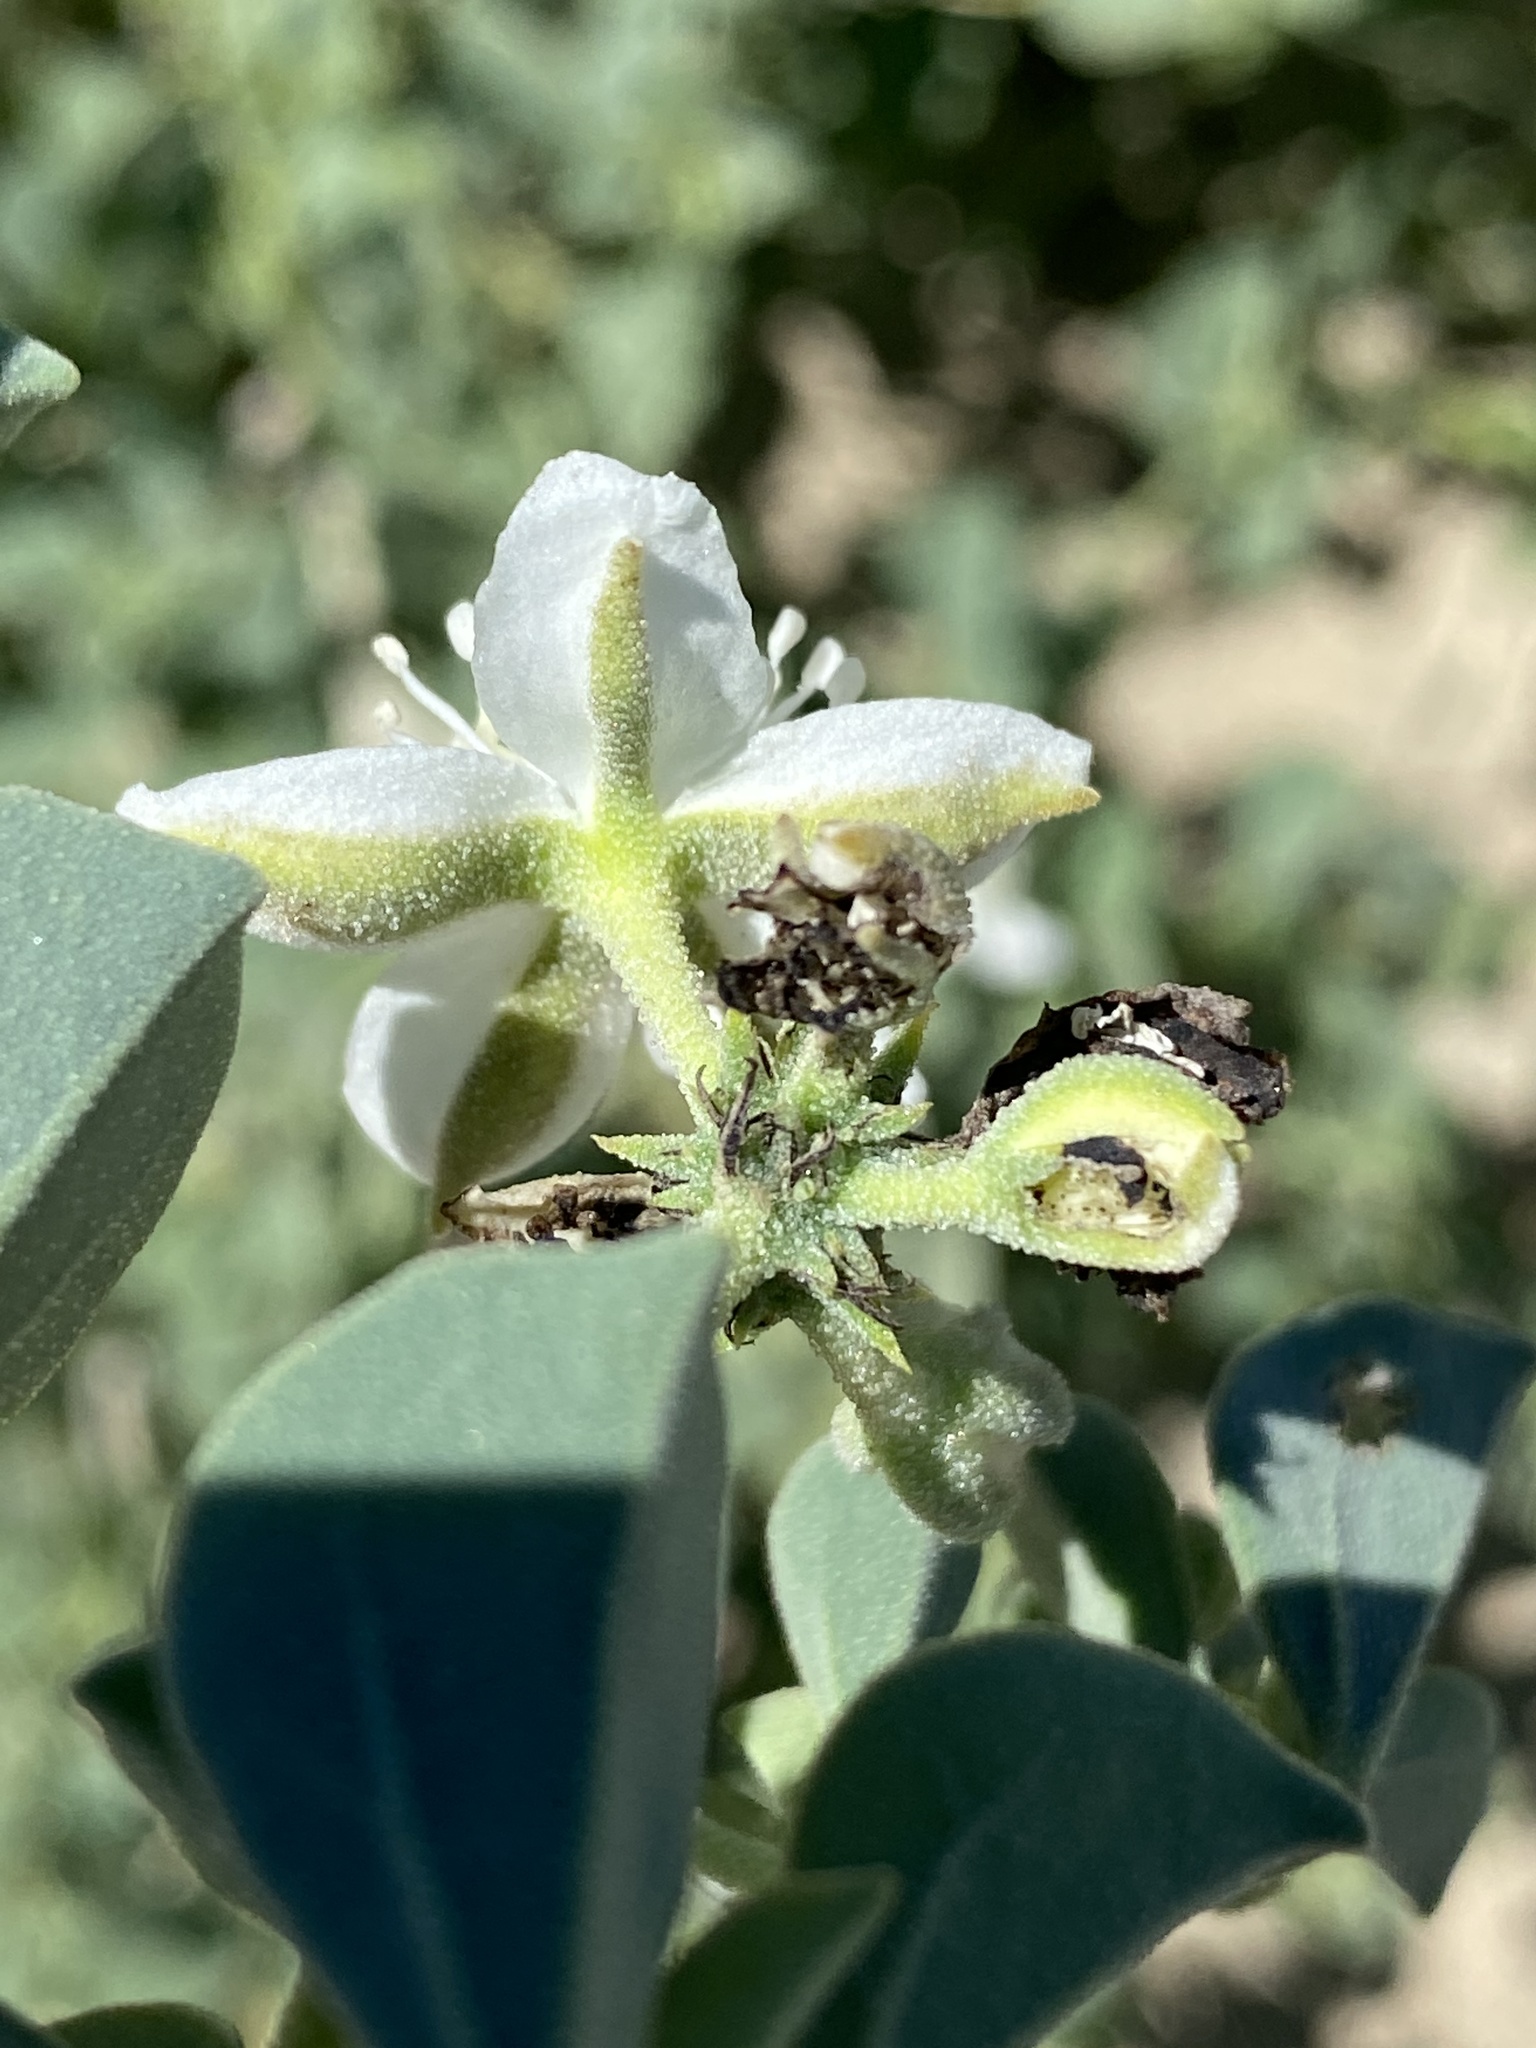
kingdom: Plantae
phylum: Tracheophyta
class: Magnoliopsida
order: Caryophyllales
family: Aizoaceae
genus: Tribulocarpus
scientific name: Tribulocarpus dimorphanthus
